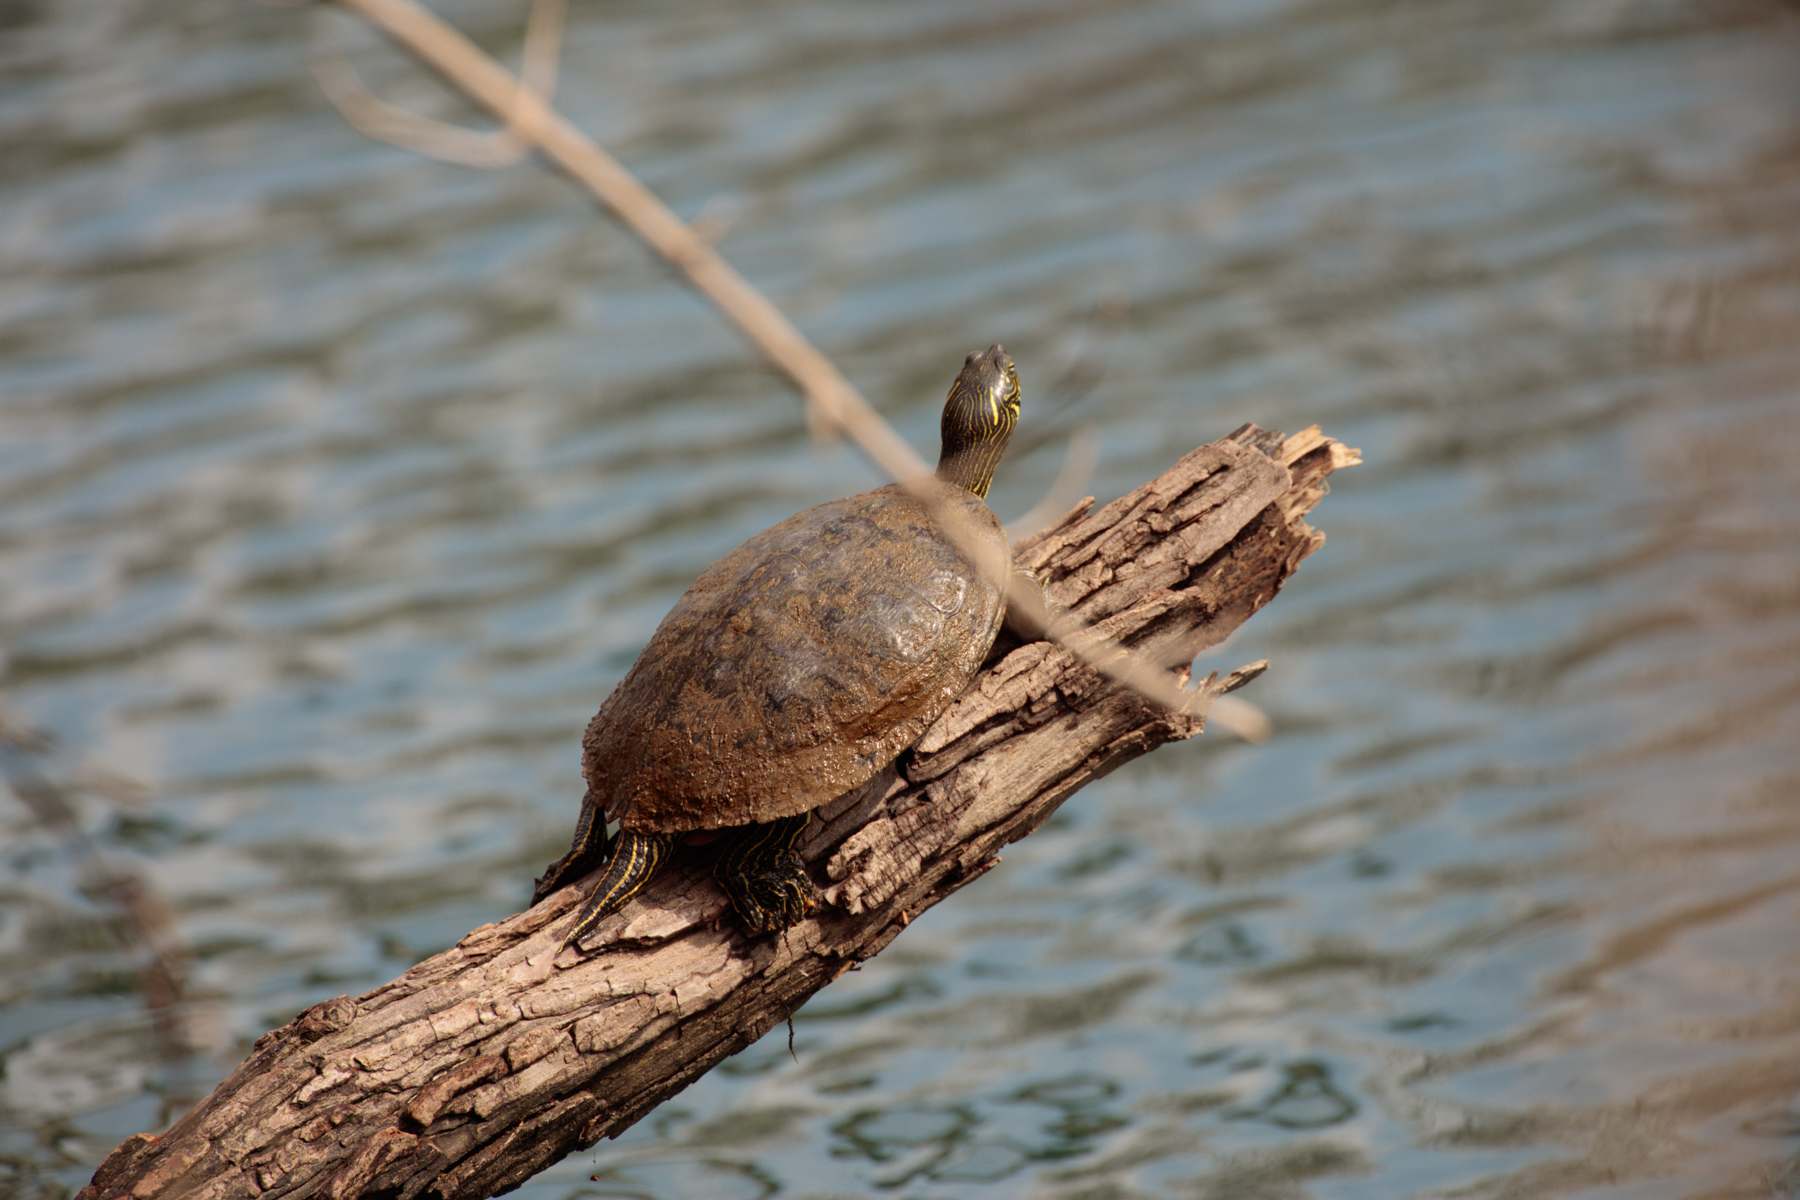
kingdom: Animalia
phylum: Chordata
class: Testudines
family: Emydidae
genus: Pseudemys
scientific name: Pseudemys texana
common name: Texas river cooter
